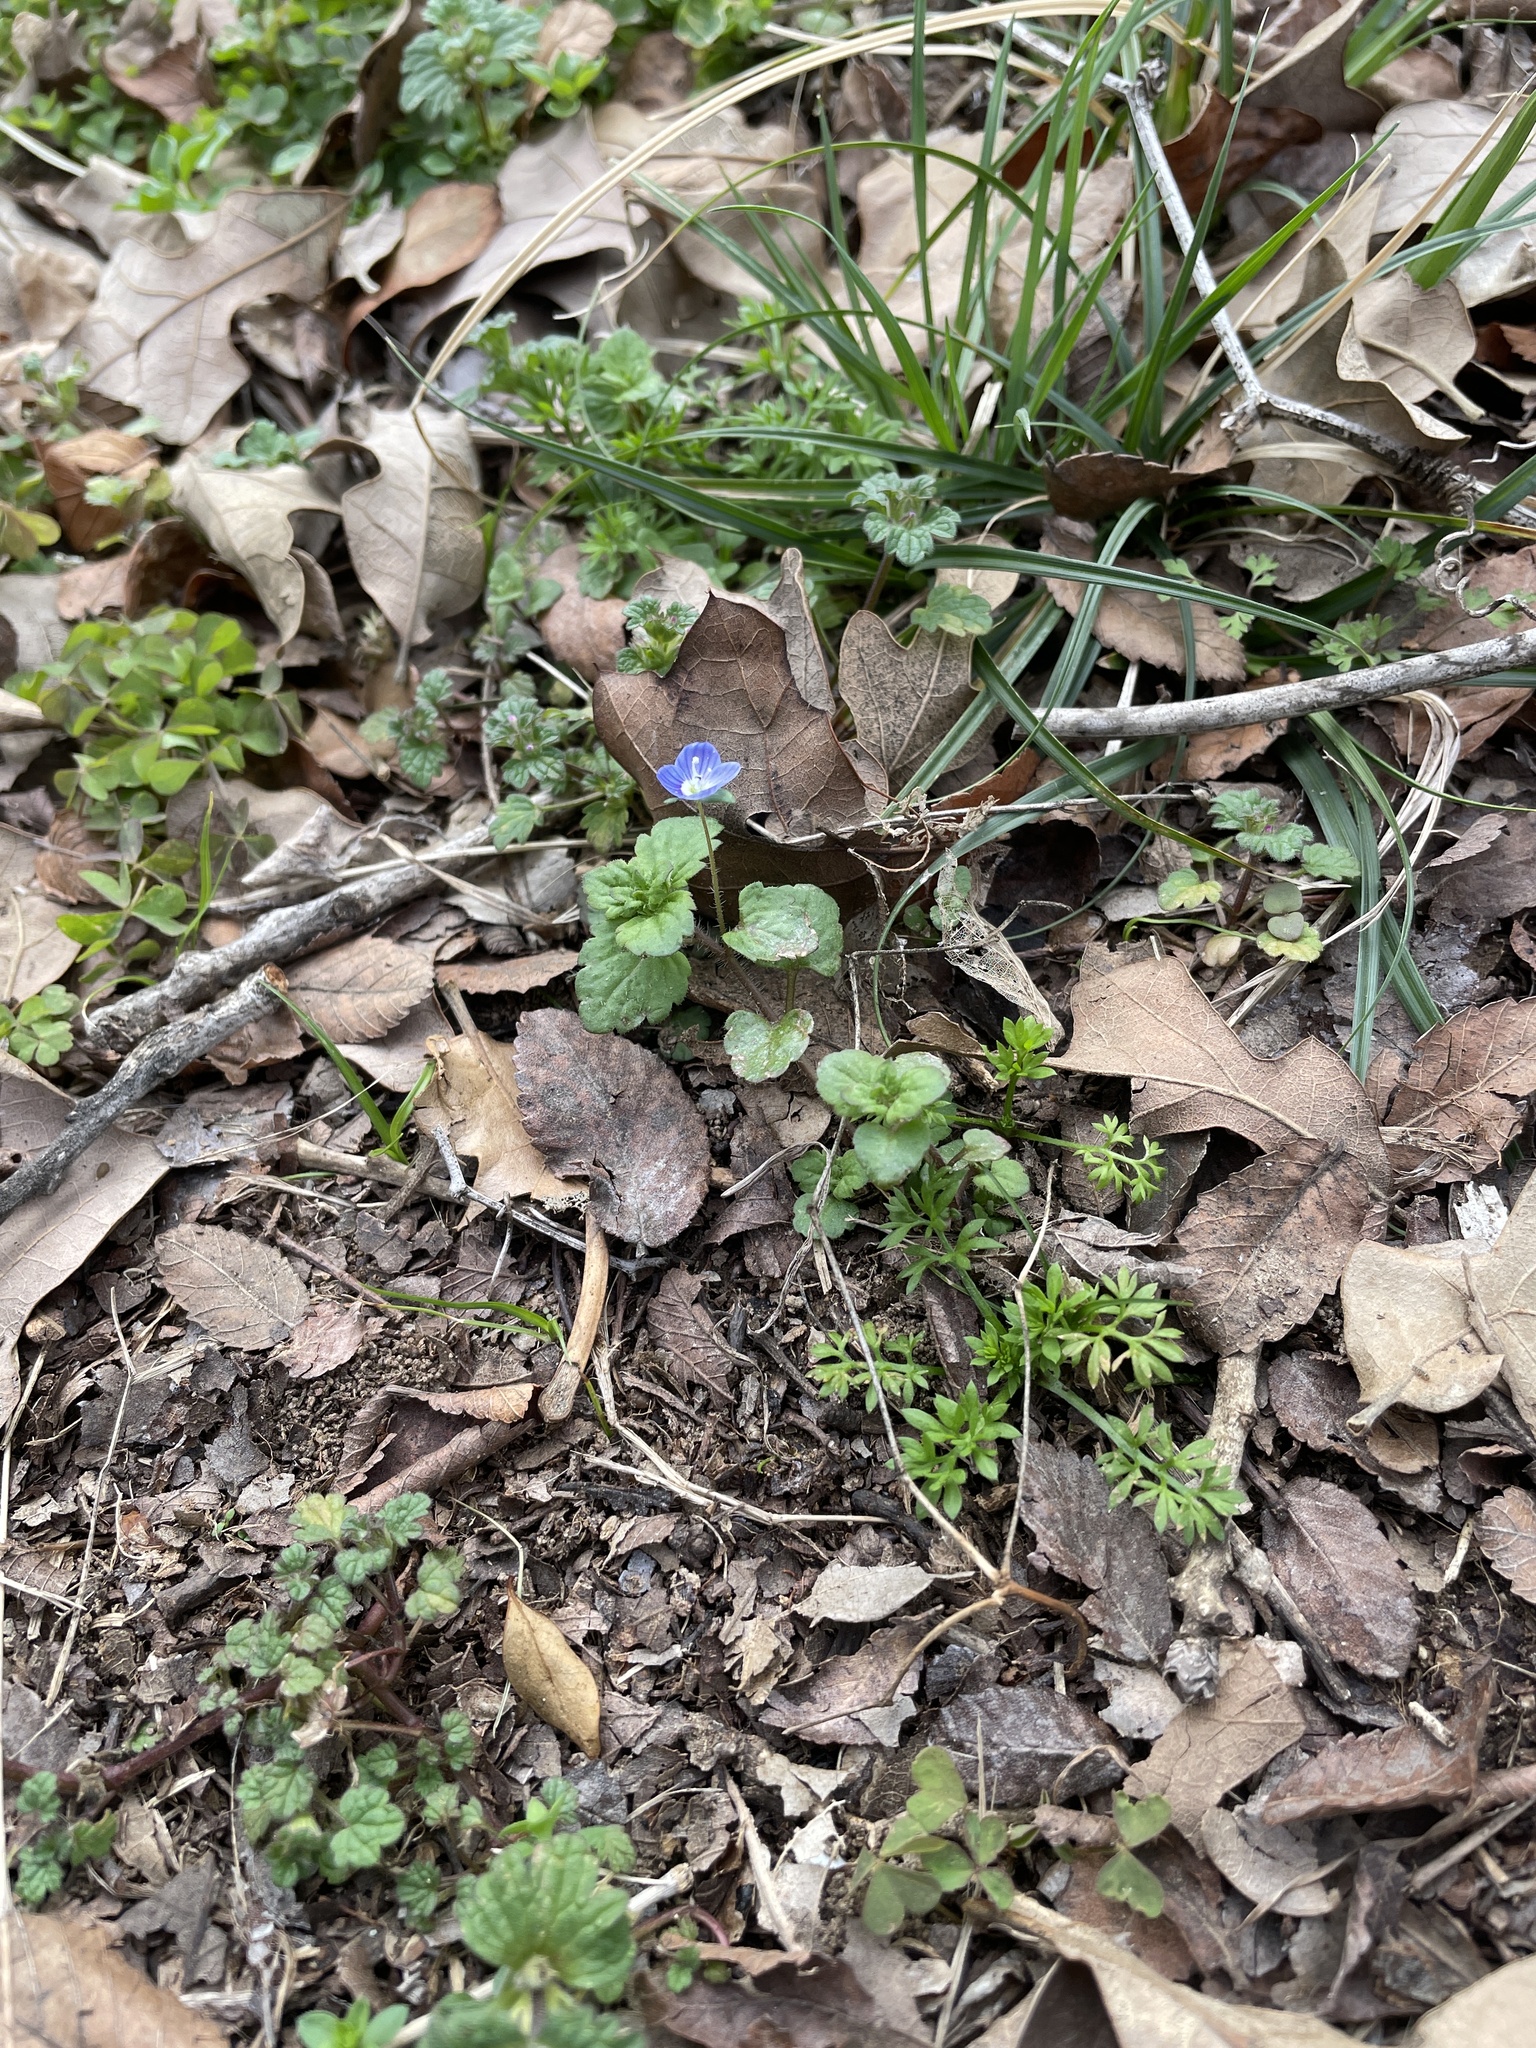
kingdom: Plantae
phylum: Tracheophyta
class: Magnoliopsida
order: Lamiales
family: Plantaginaceae
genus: Veronica
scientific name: Veronica persica
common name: Common field-speedwell
